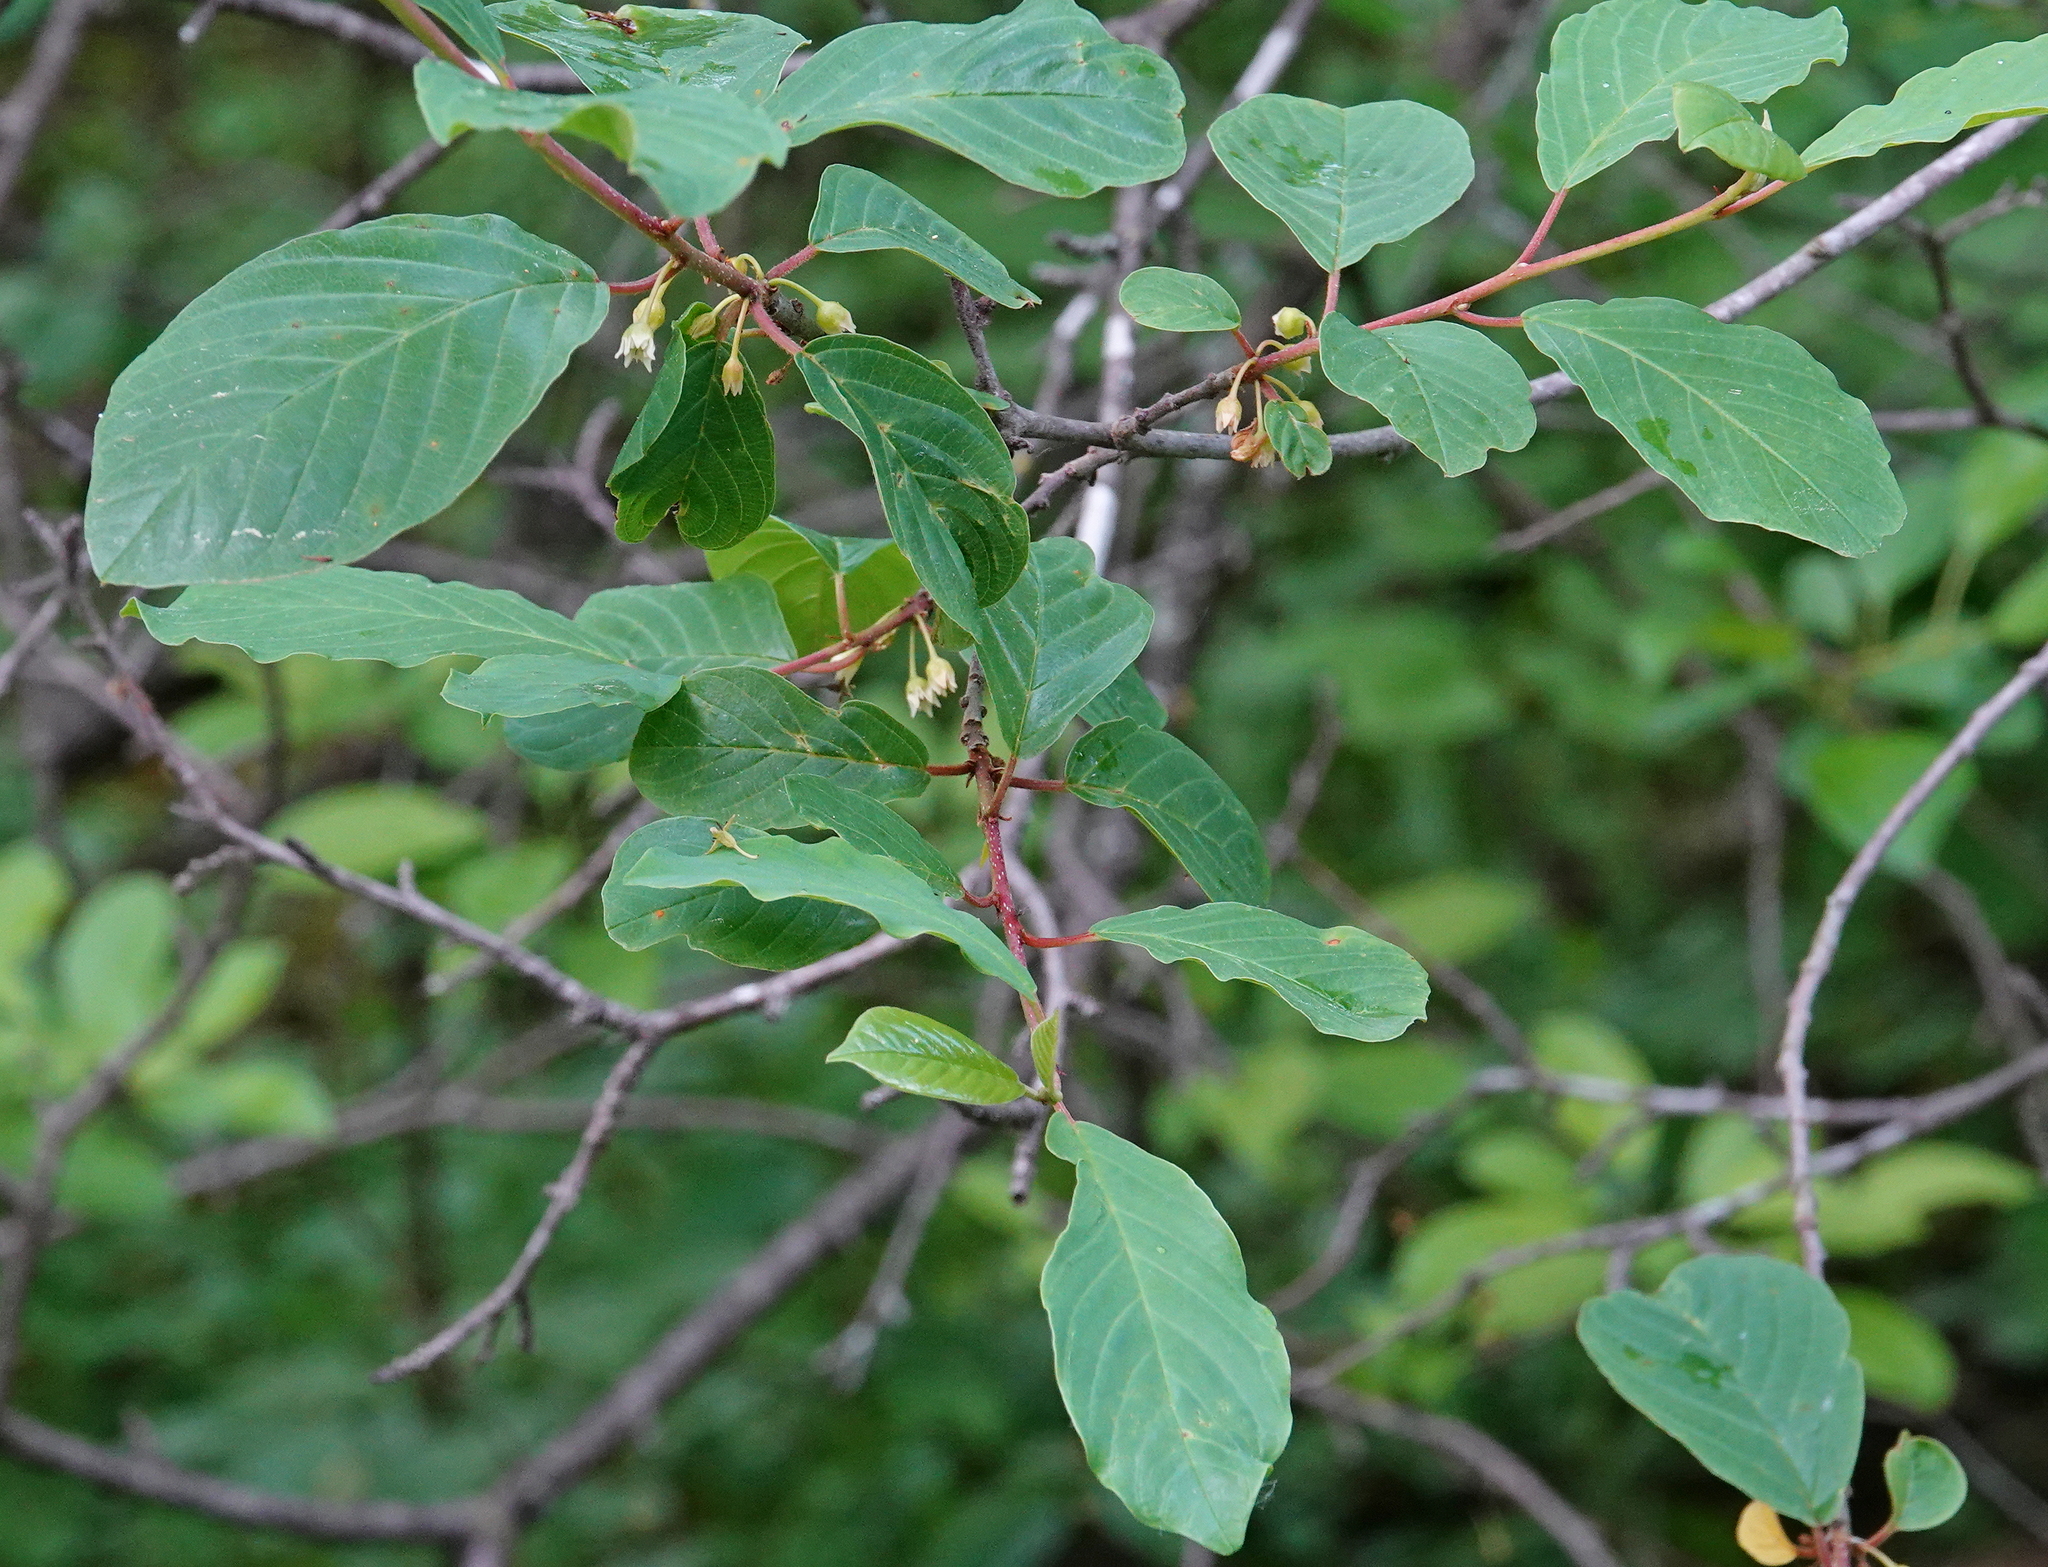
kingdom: Plantae
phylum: Tracheophyta
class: Magnoliopsida
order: Rosales
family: Rhamnaceae
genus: Frangula
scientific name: Frangula alnus
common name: Alder buckthorn
